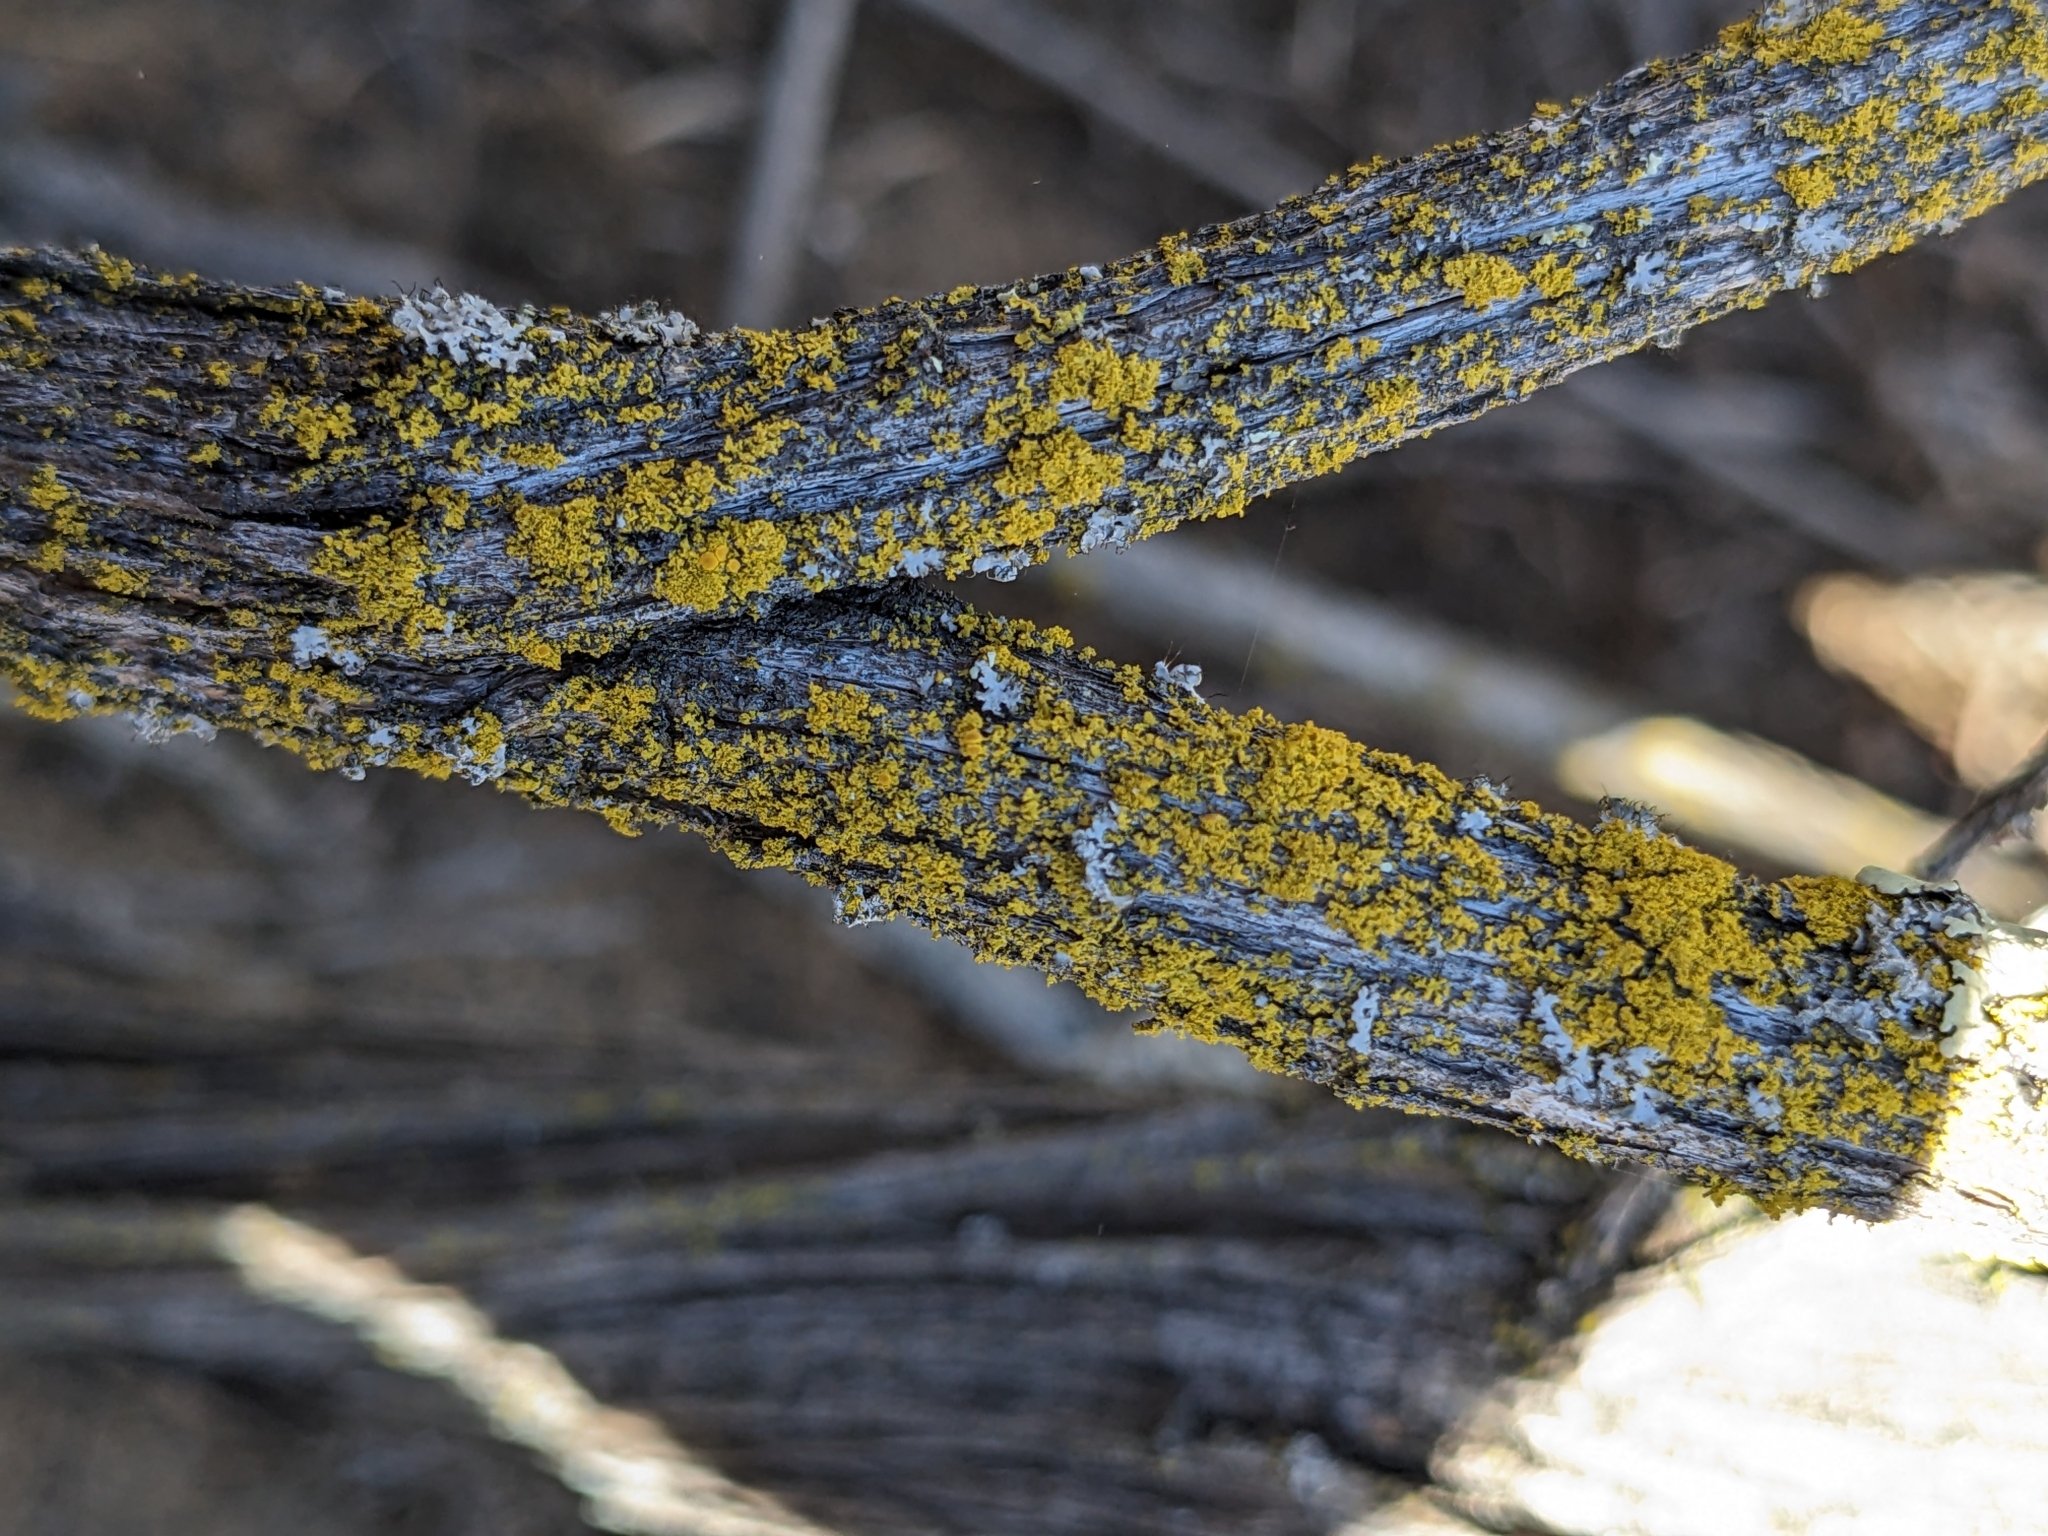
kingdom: Fungi
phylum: Ascomycota
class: Candelariomycetes
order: Candelariales
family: Candelariaceae
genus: Candelaria
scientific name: Candelaria pacifica
